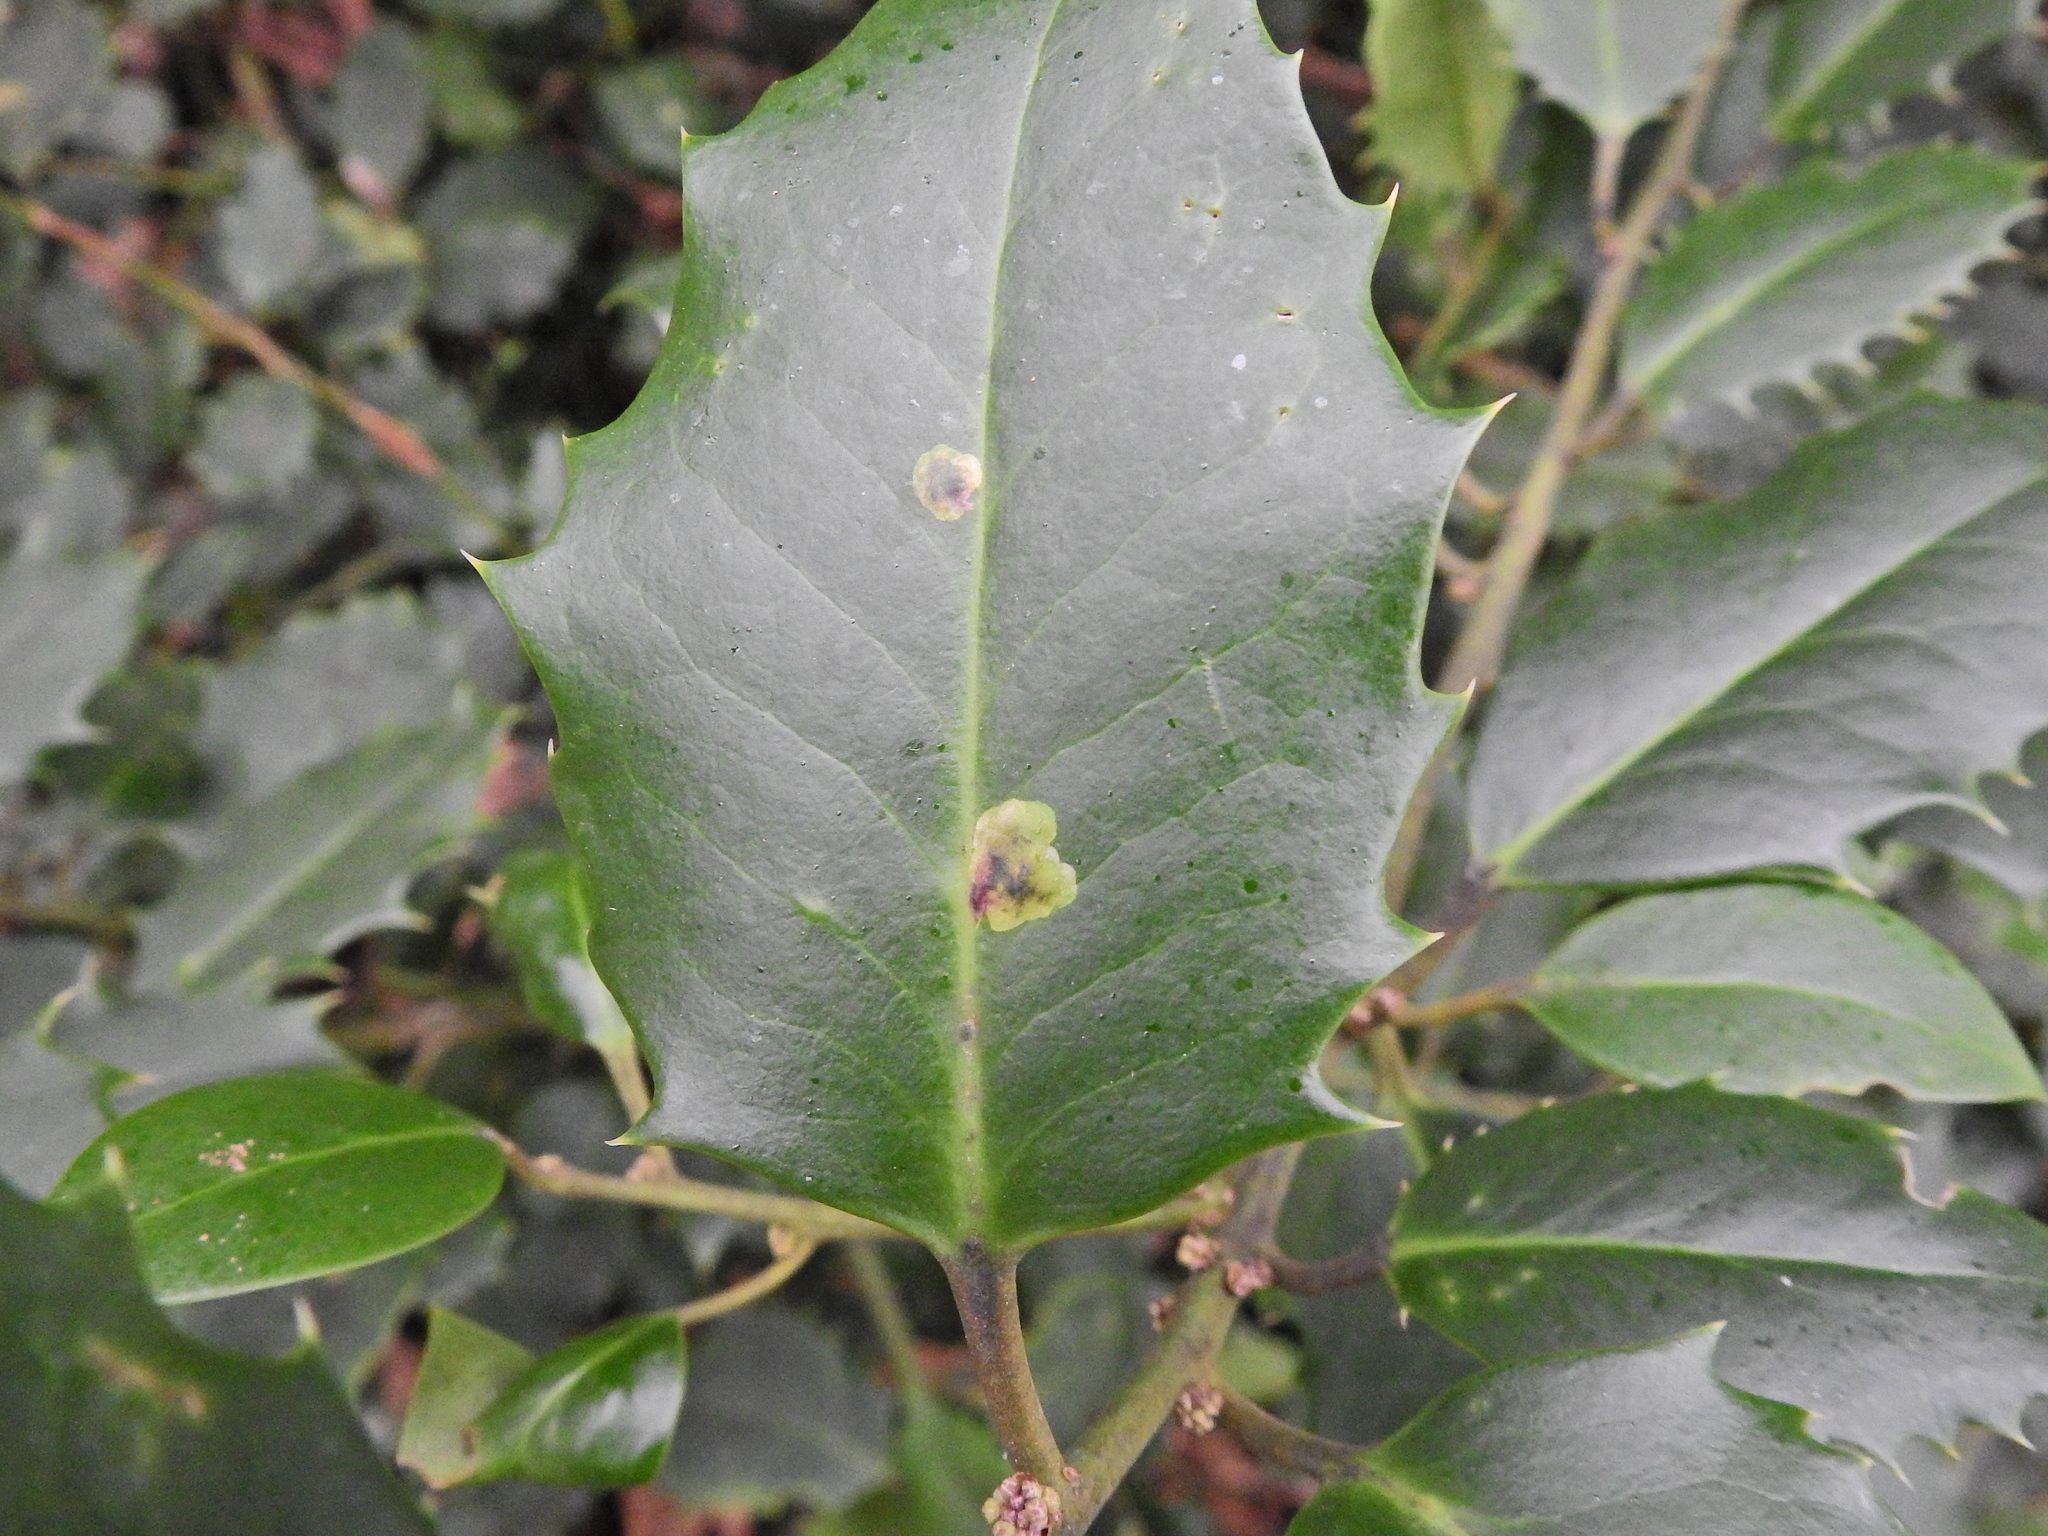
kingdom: Animalia
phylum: Arthropoda
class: Insecta
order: Diptera
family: Agromyzidae
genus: Phytomyza
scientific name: Phytomyza ilicis
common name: Holly leafminer
